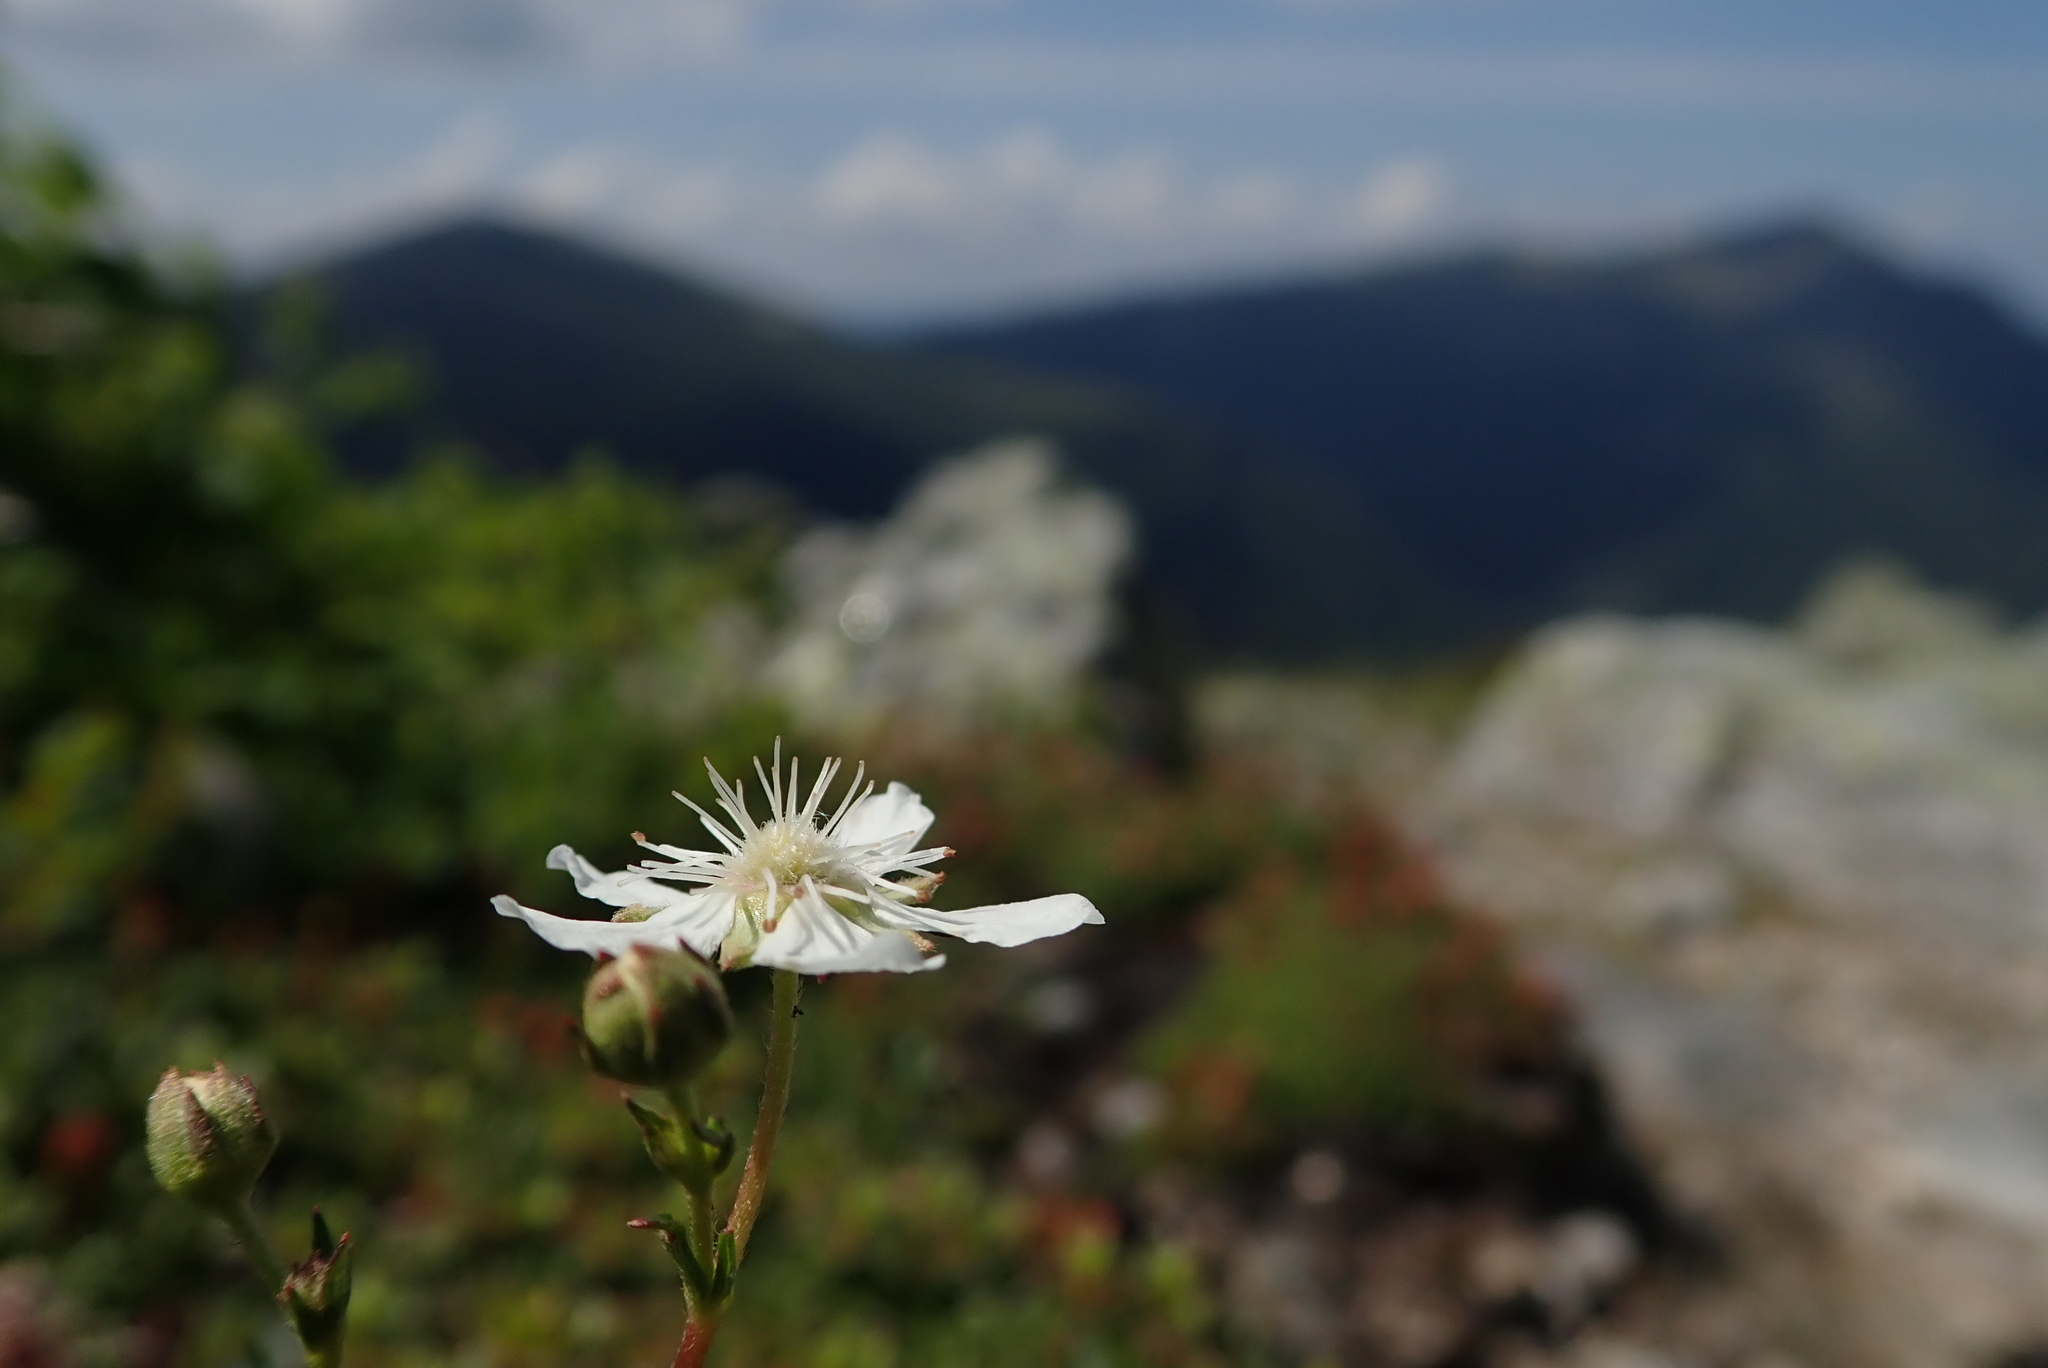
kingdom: Plantae
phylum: Tracheophyta
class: Magnoliopsida
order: Rosales
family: Rosaceae
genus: Sibbaldia
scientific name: Sibbaldia tridentata
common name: Three-toothed cinquefoil
